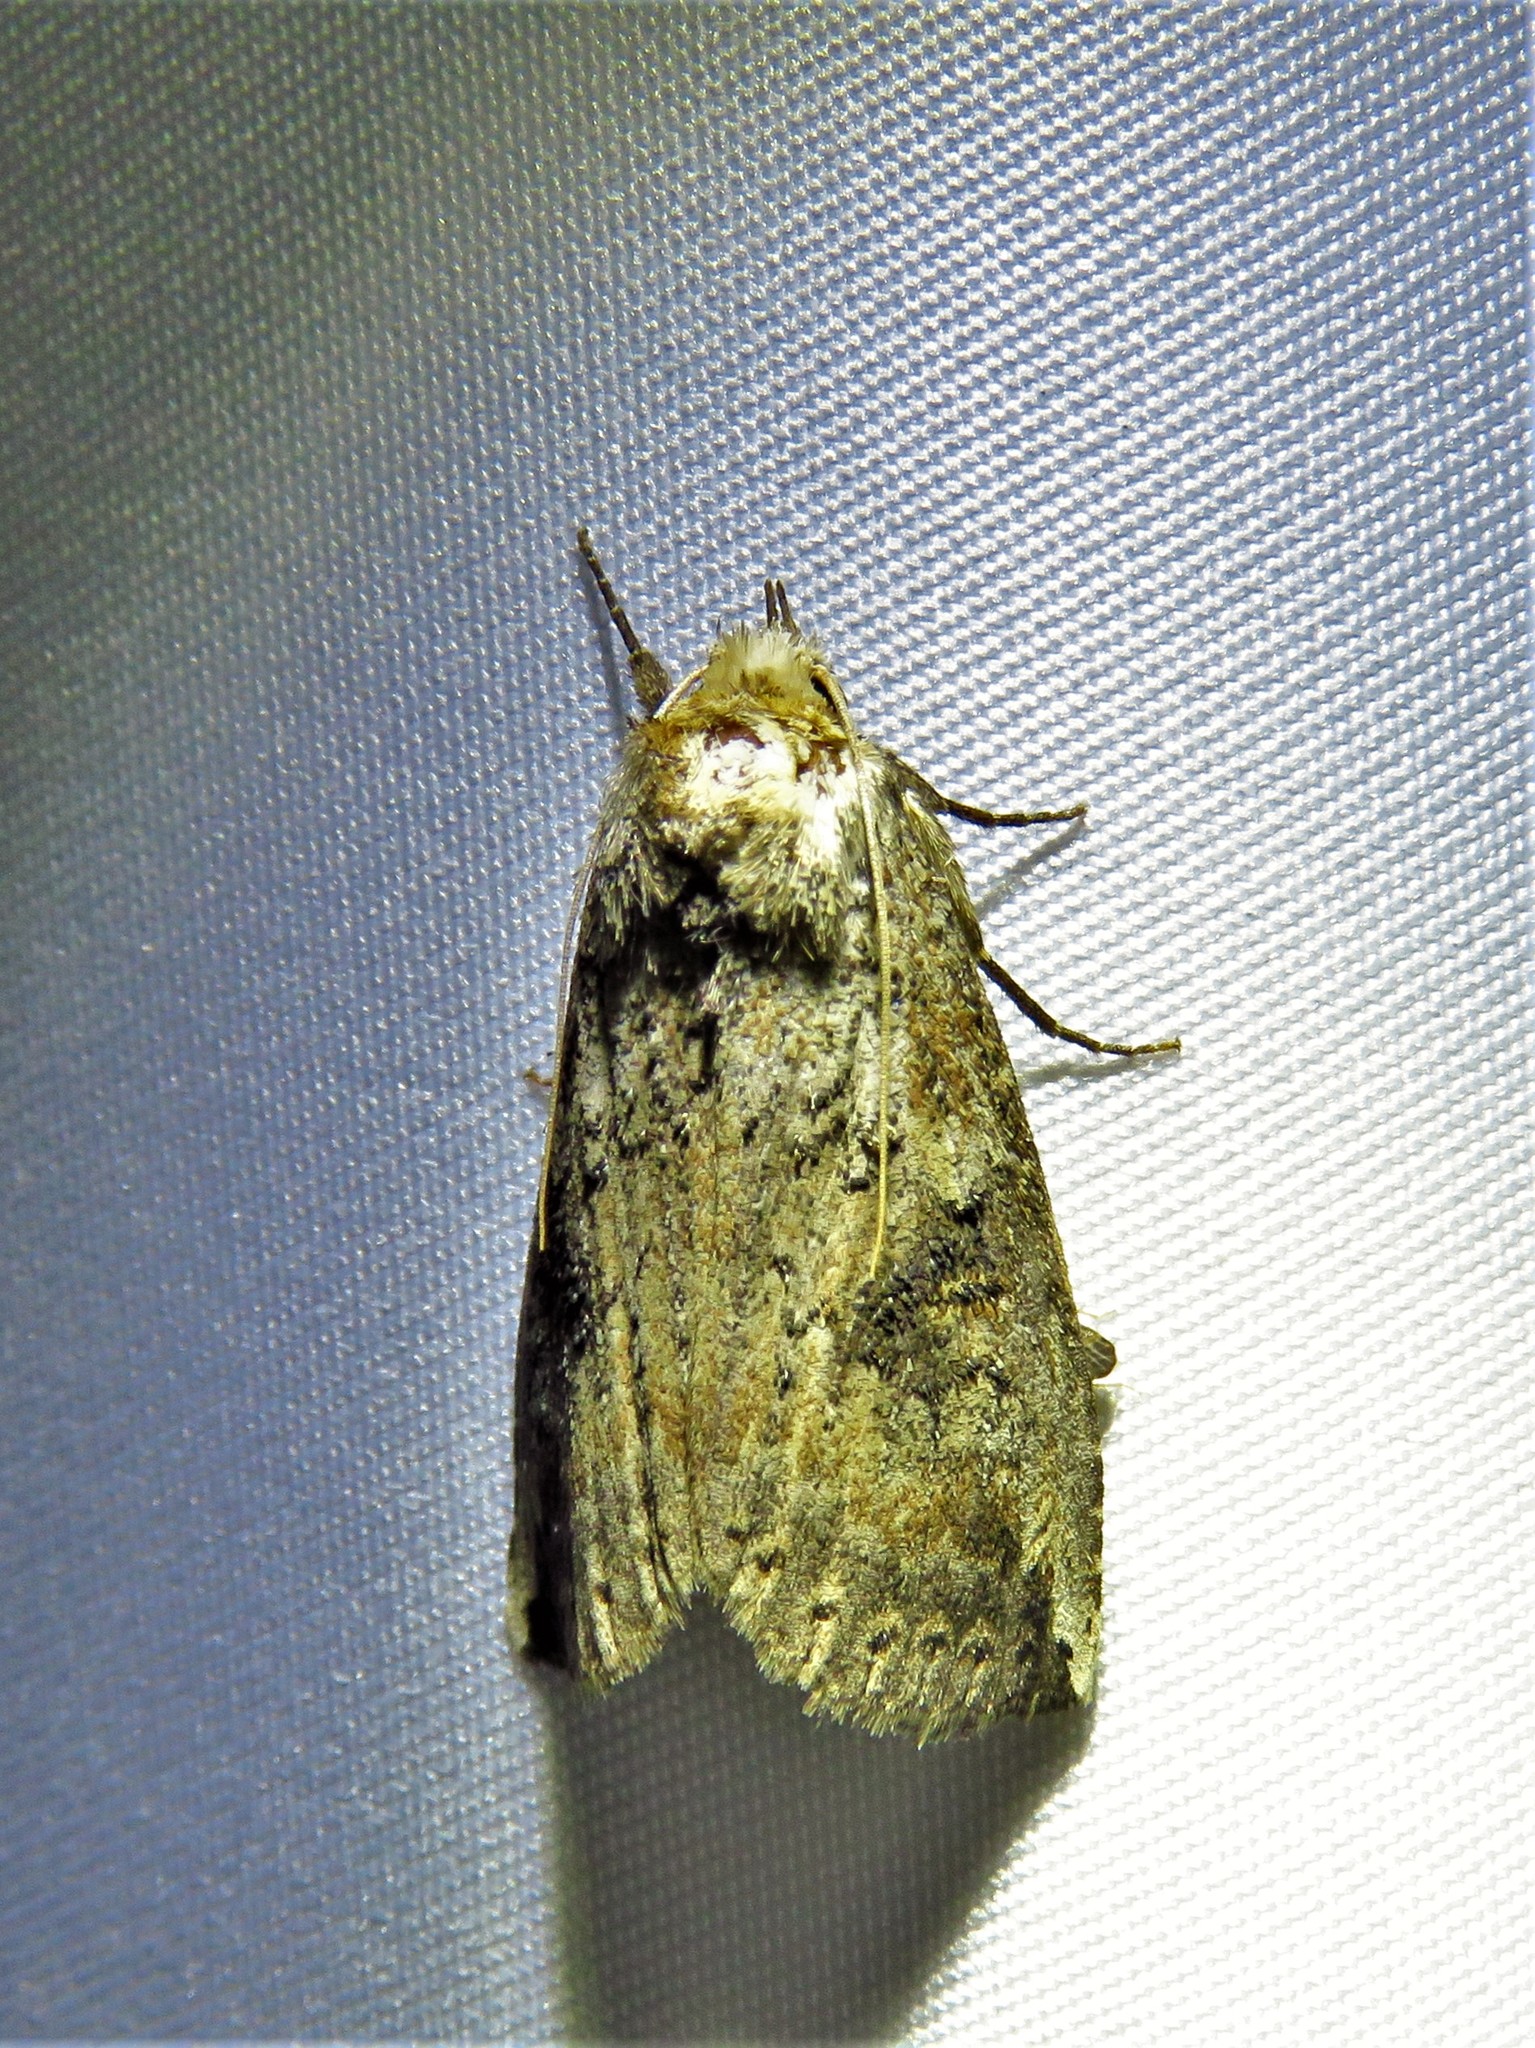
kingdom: Animalia
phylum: Arthropoda
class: Insecta
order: Lepidoptera
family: Notodontidae
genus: Elasmia
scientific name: Elasmia packardii
